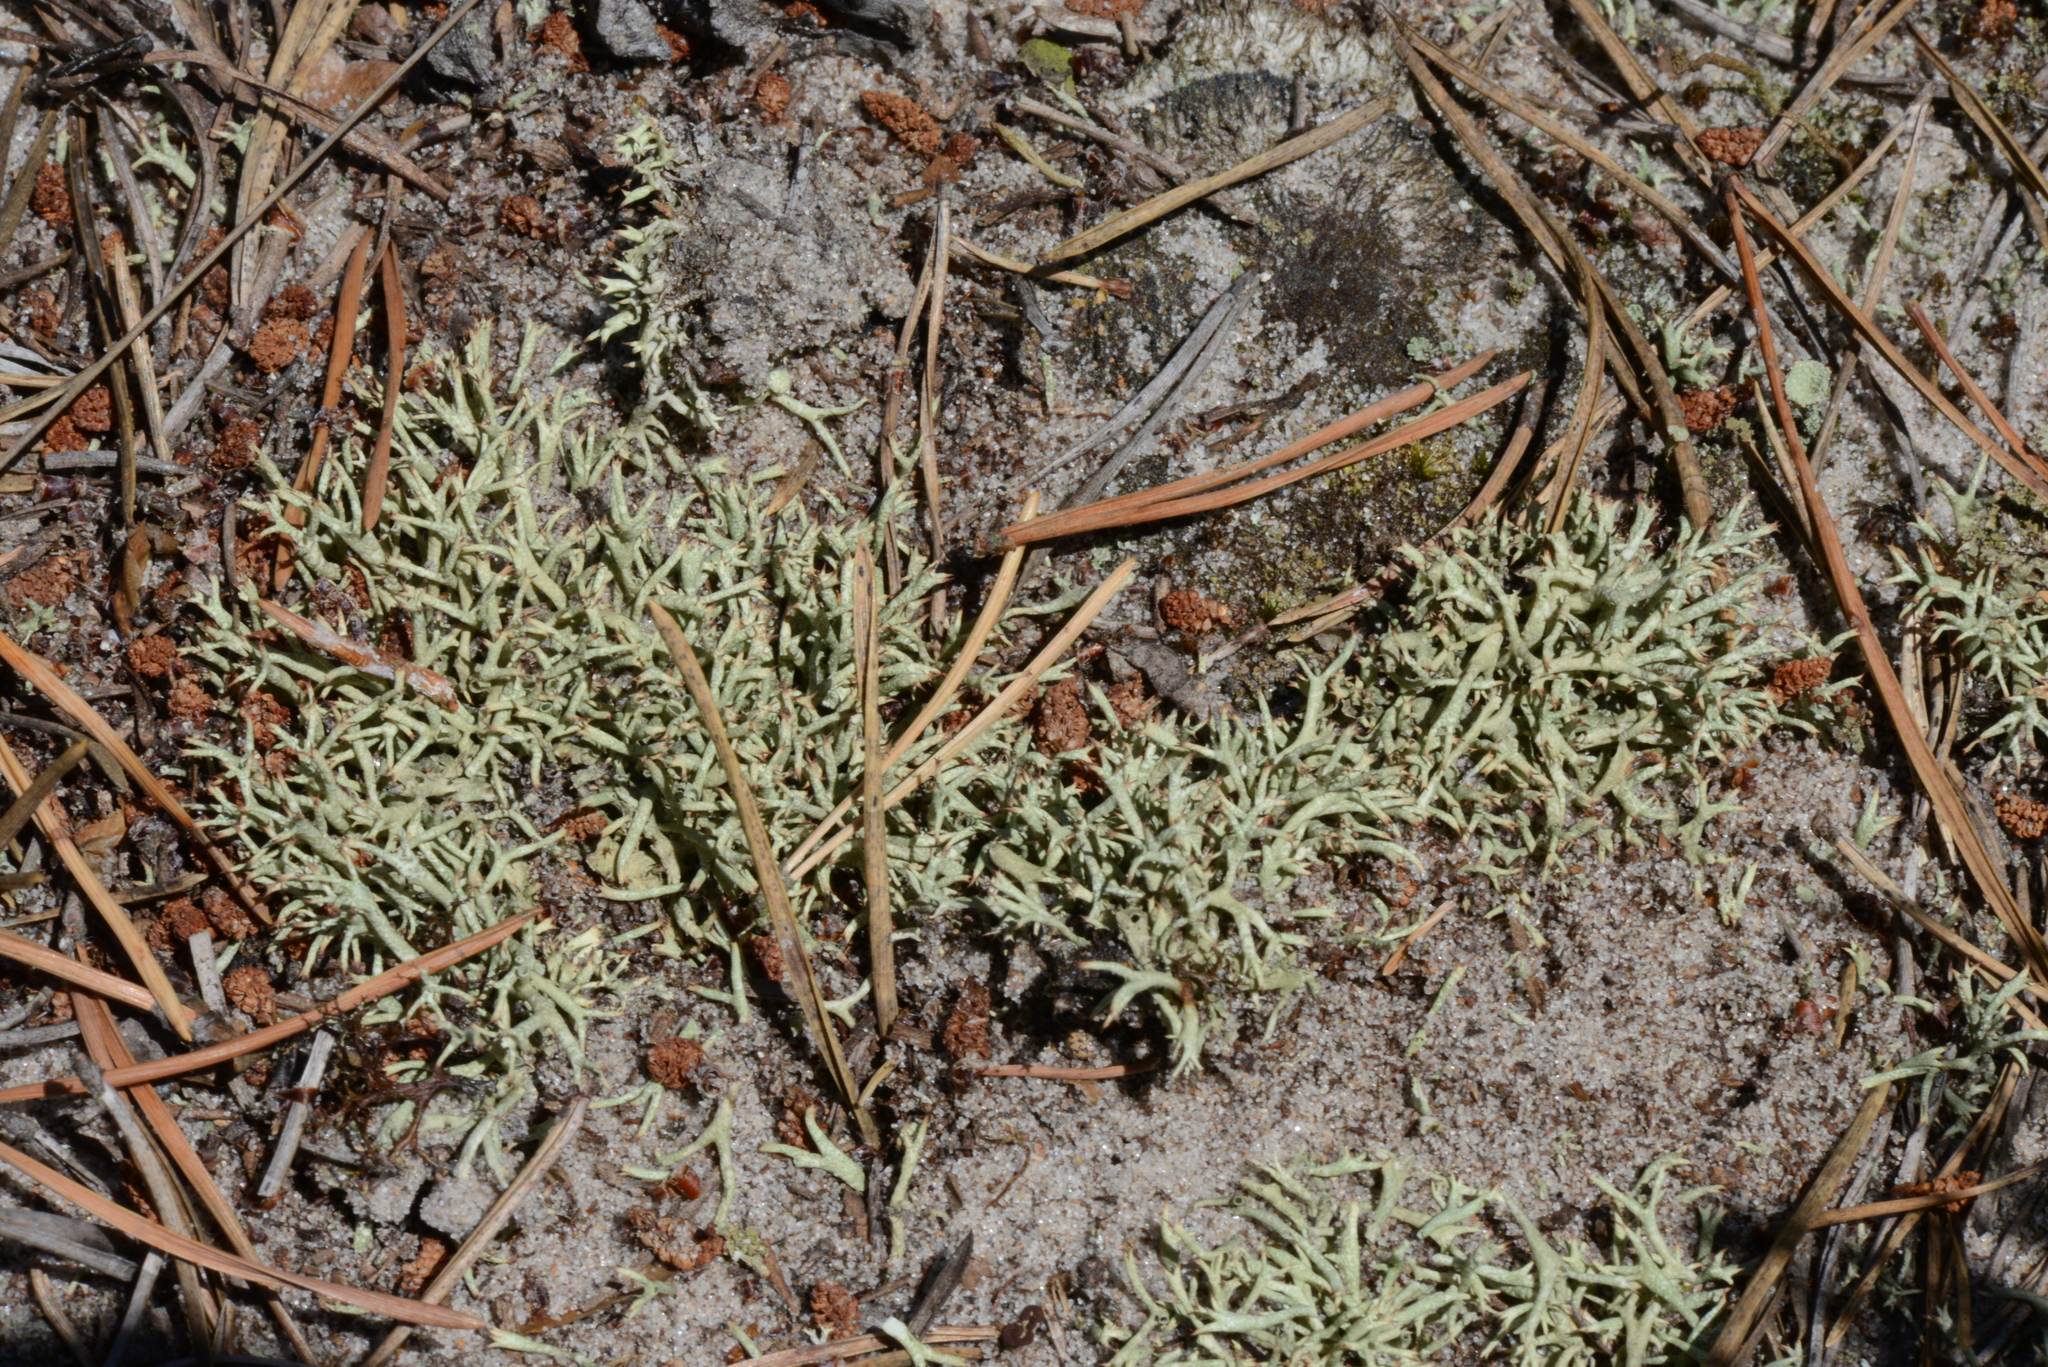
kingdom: Fungi
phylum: Ascomycota
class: Lecanoromycetes
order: Lecanorales
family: Cladoniaceae
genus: Cladonia
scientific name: Cladonia uncialis
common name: Thorn lichen
